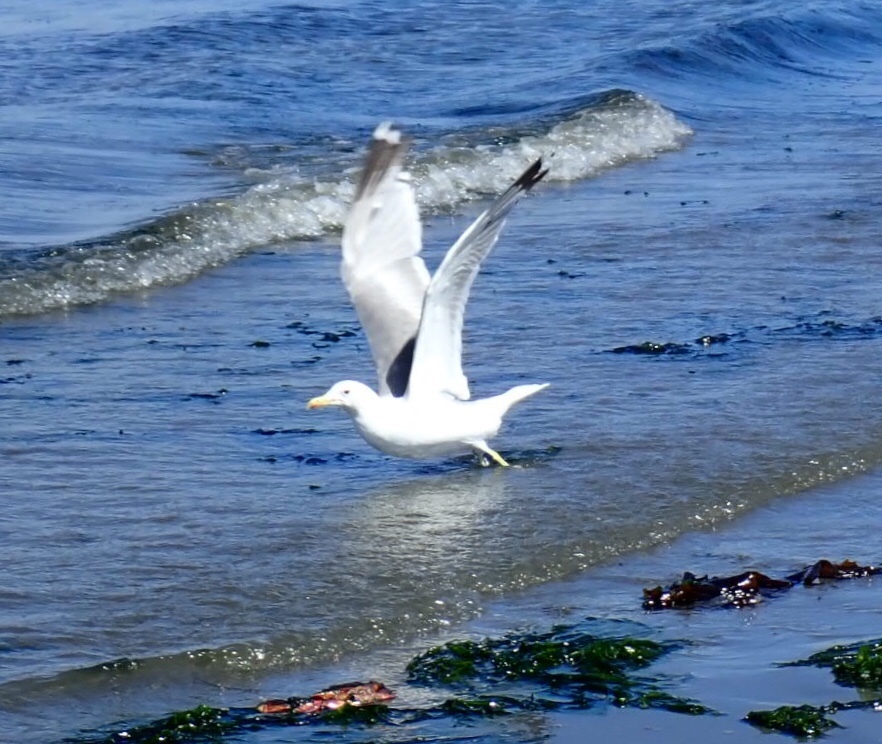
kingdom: Animalia
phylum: Chordata
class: Aves
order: Charadriiformes
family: Laridae
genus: Larus
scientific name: Larus californicus
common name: California gull
